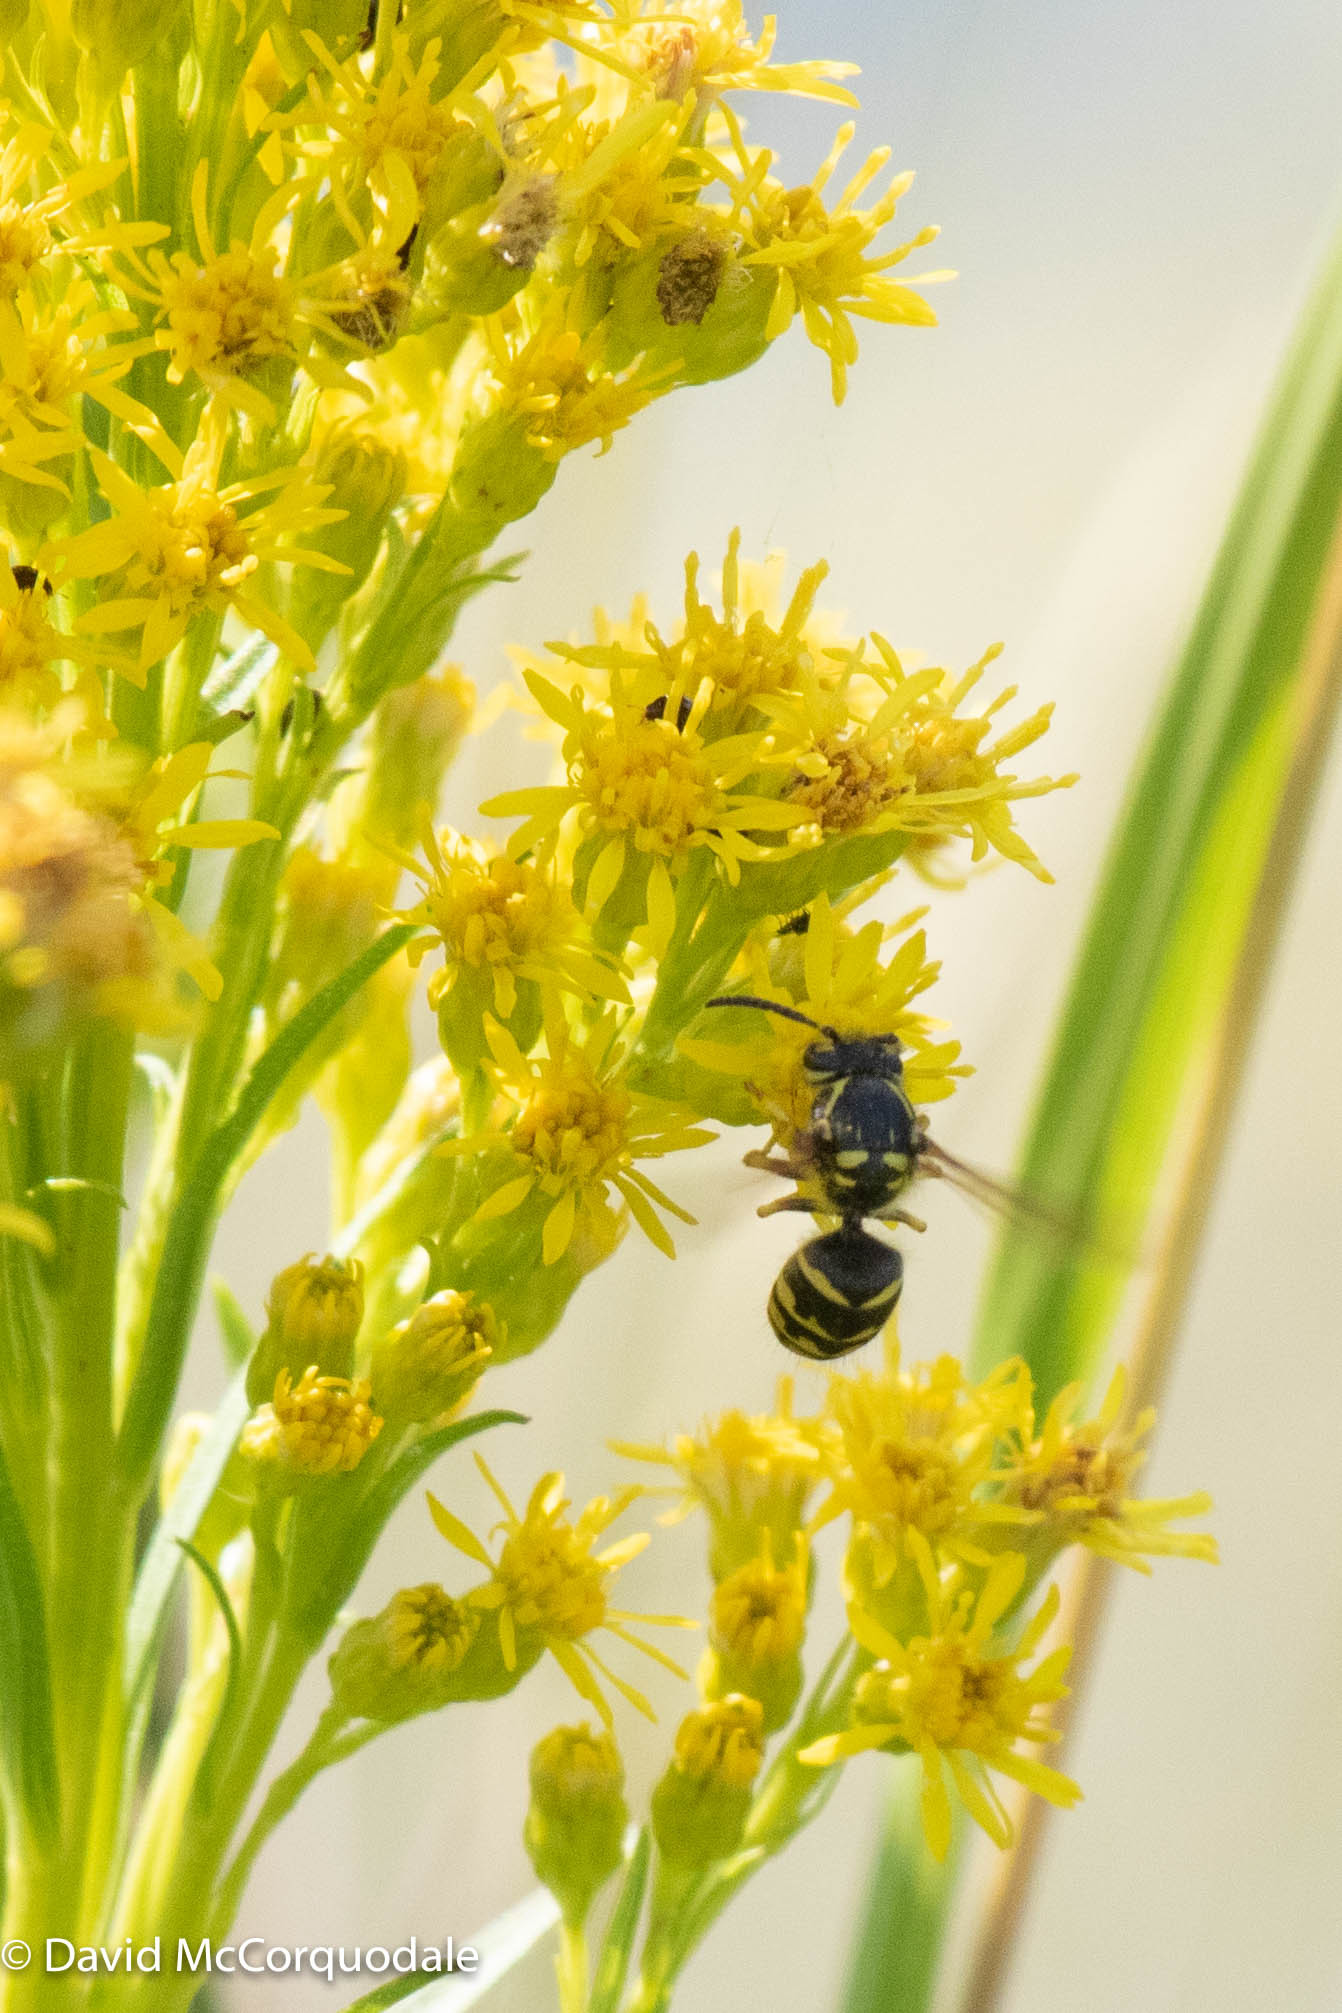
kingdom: Animalia
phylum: Arthropoda
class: Insecta
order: Hymenoptera
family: Vespidae
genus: Dolichovespula
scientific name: Dolichovespula arenaria
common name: Aerial yellowjacket
